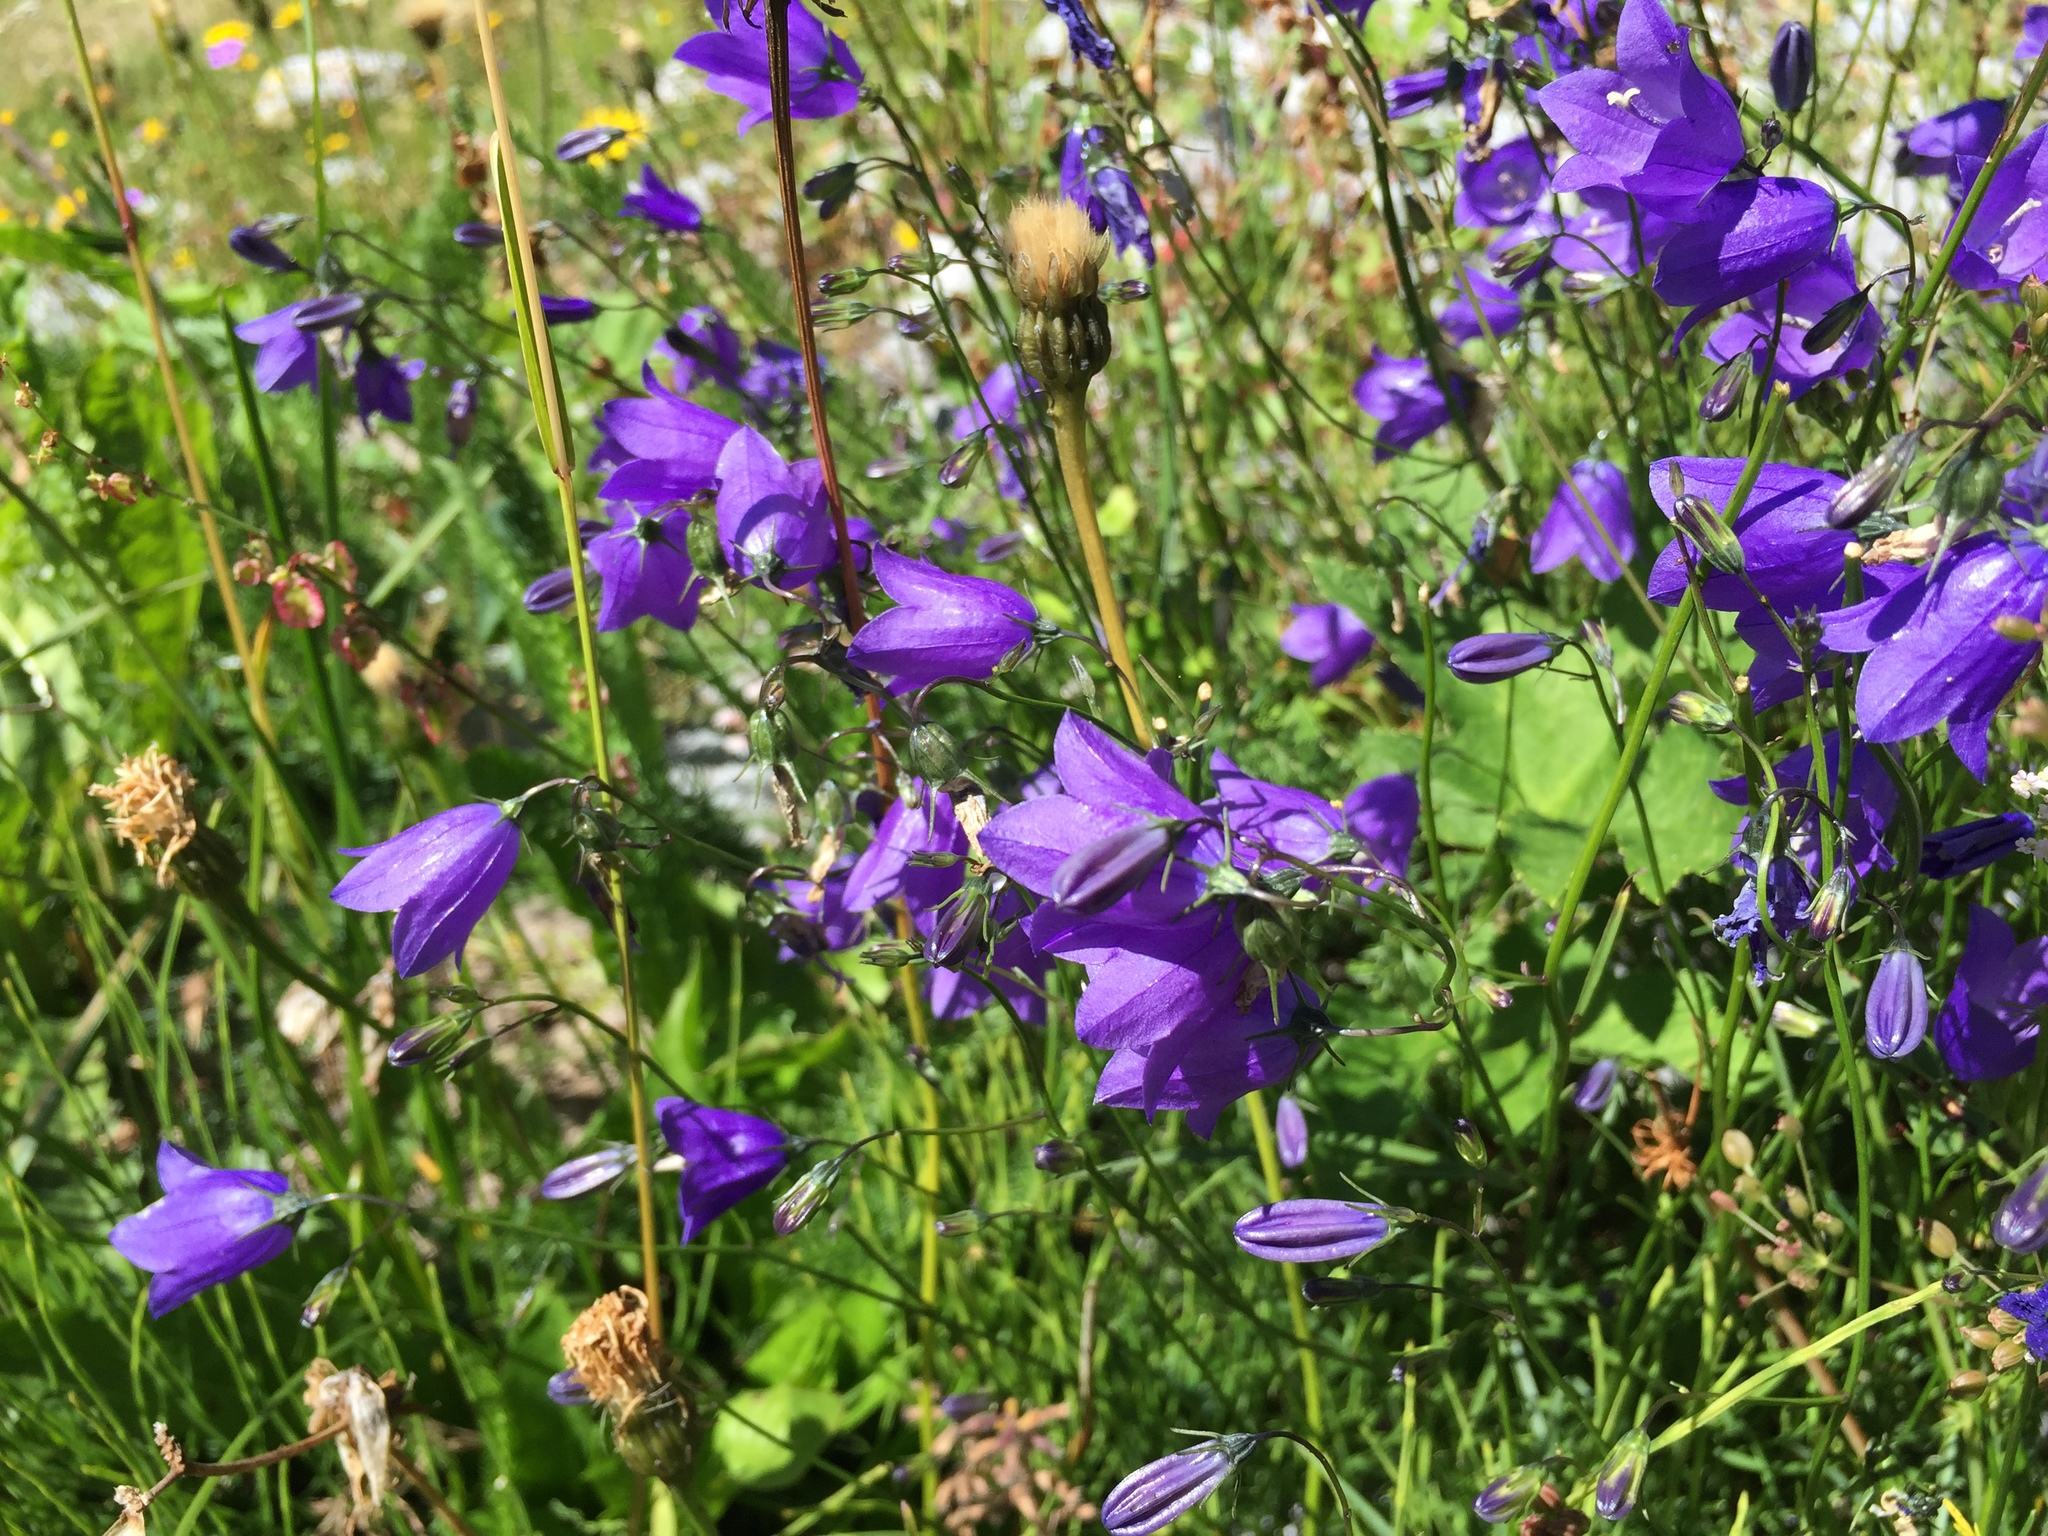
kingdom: Plantae
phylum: Tracheophyta
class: Magnoliopsida
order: Asterales
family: Campanulaceae
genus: Campanula
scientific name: Campanula rotundifolia
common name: Harebell
